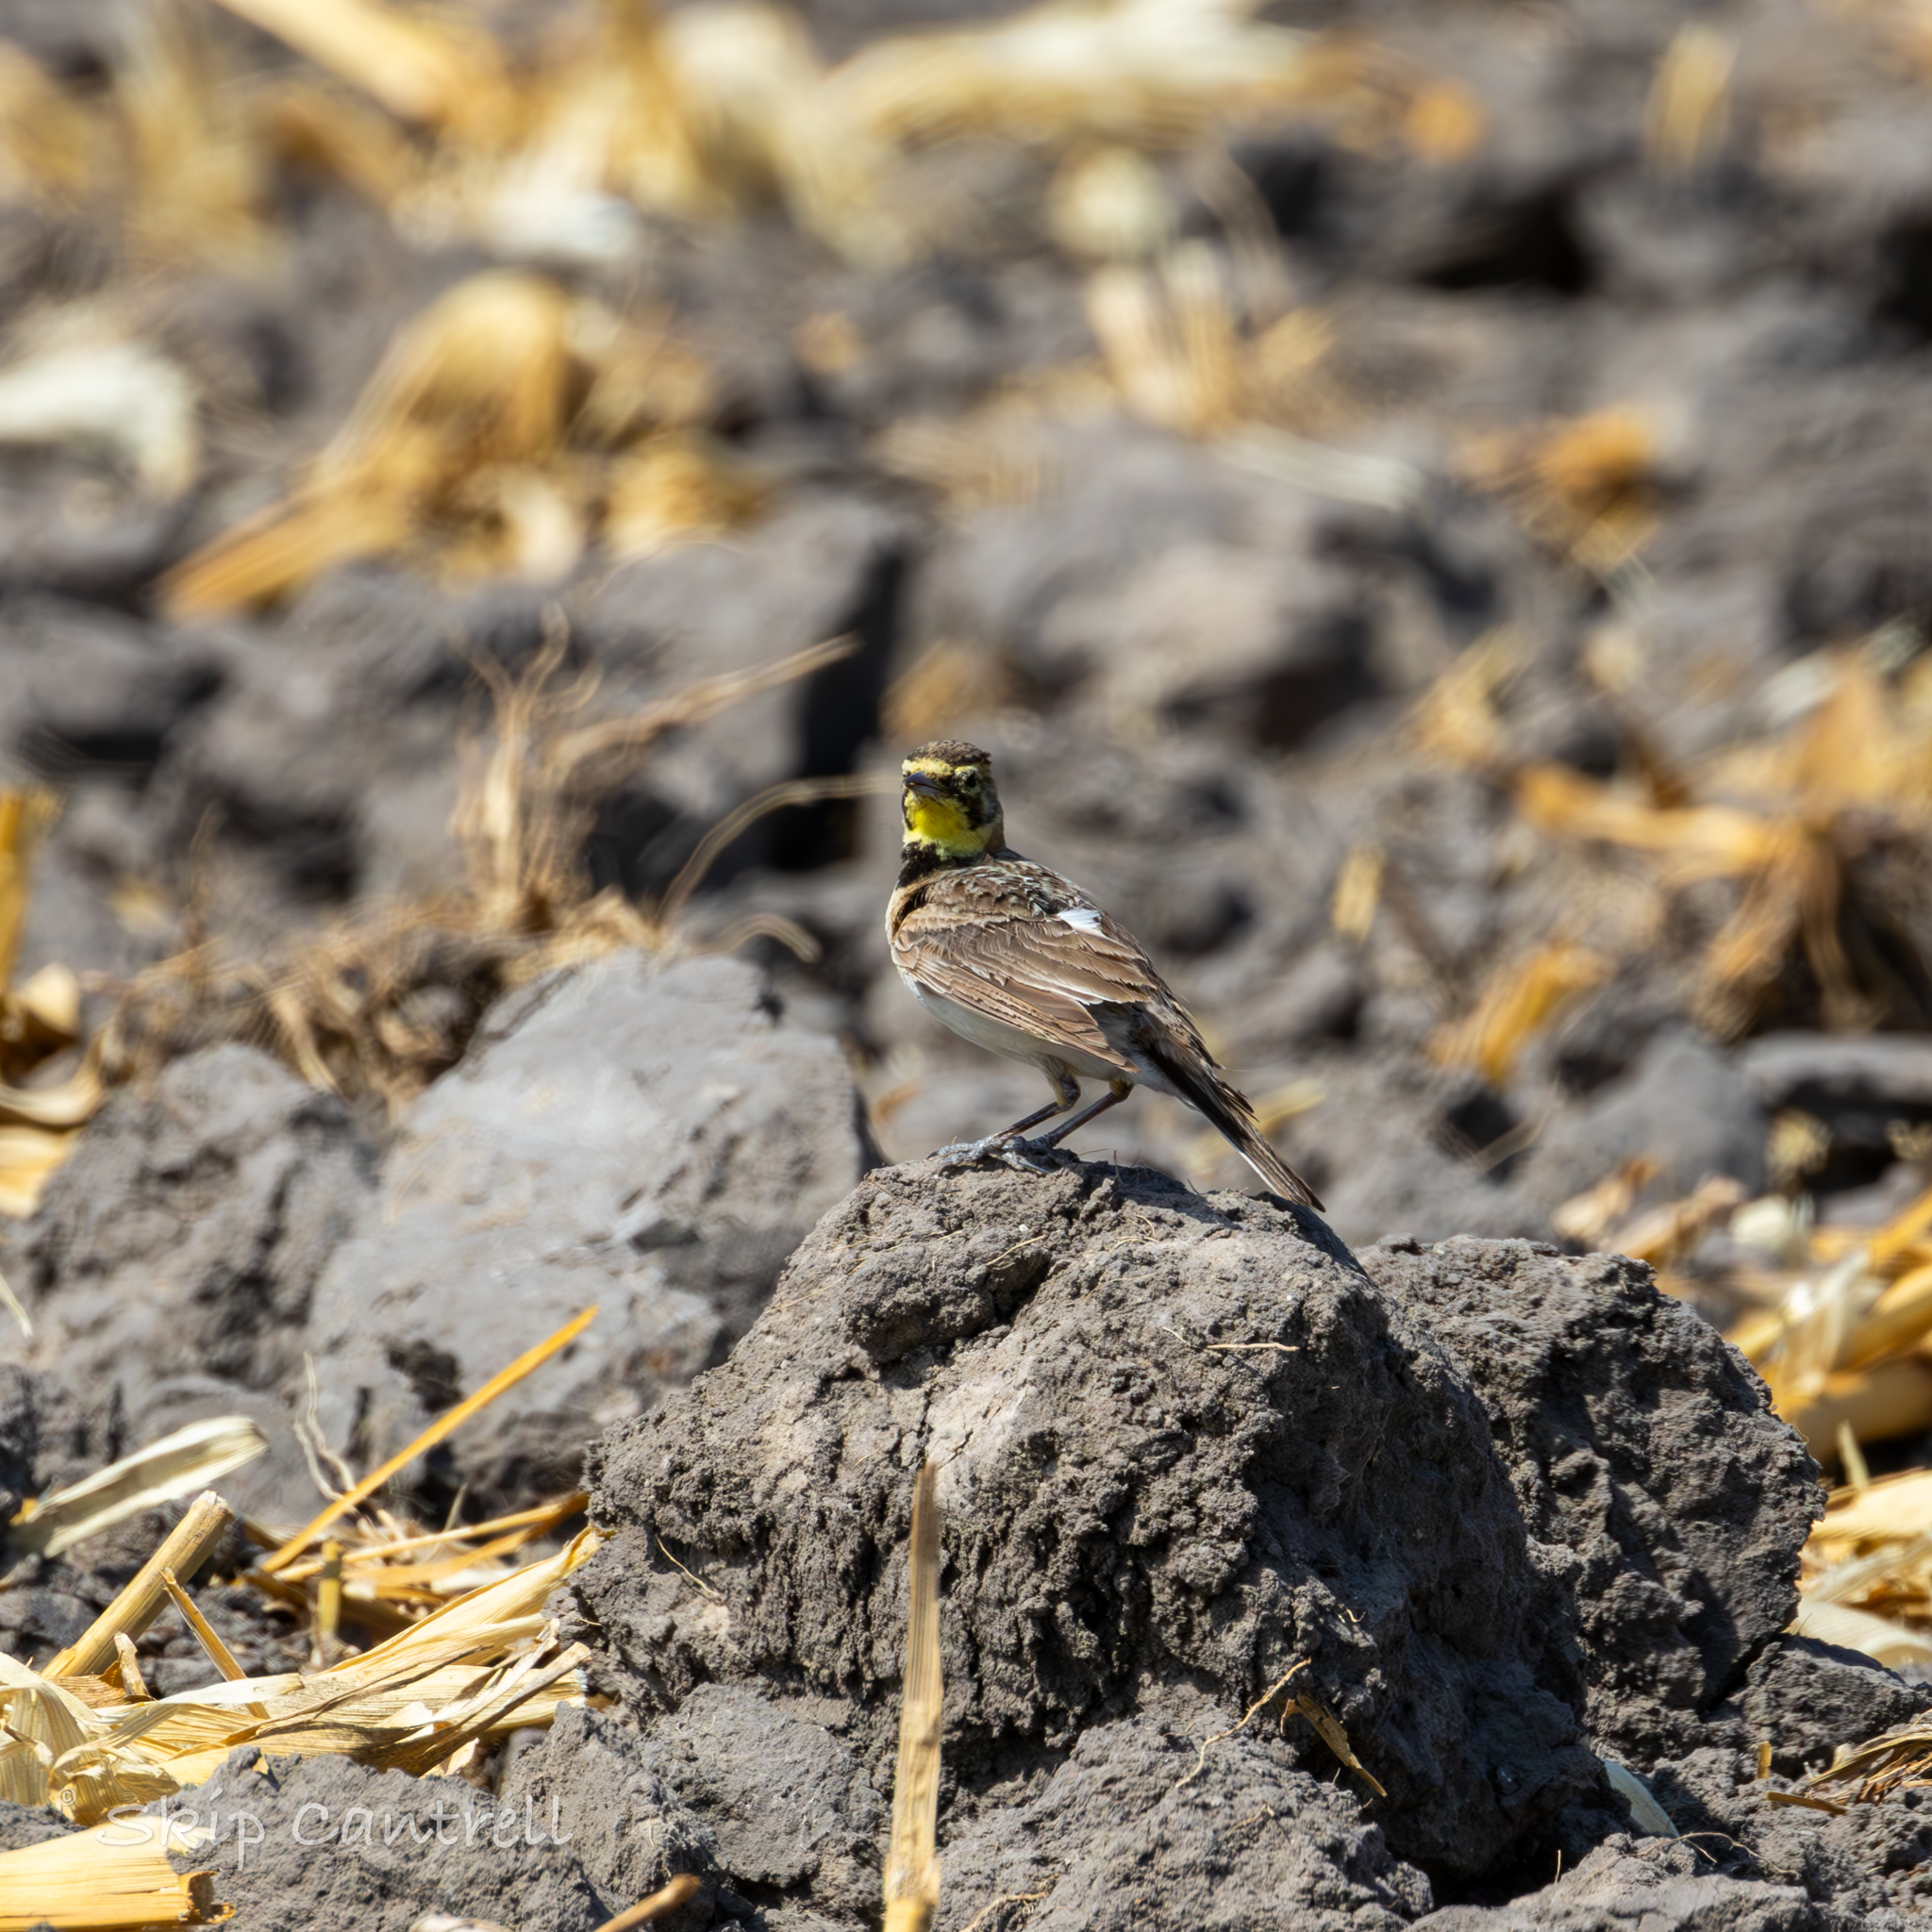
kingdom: Animalia
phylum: Chordata
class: Aves
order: Passeriformes
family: Alaudidae
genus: Eremophila
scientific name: Eremophila alpestris
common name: Horned lark
